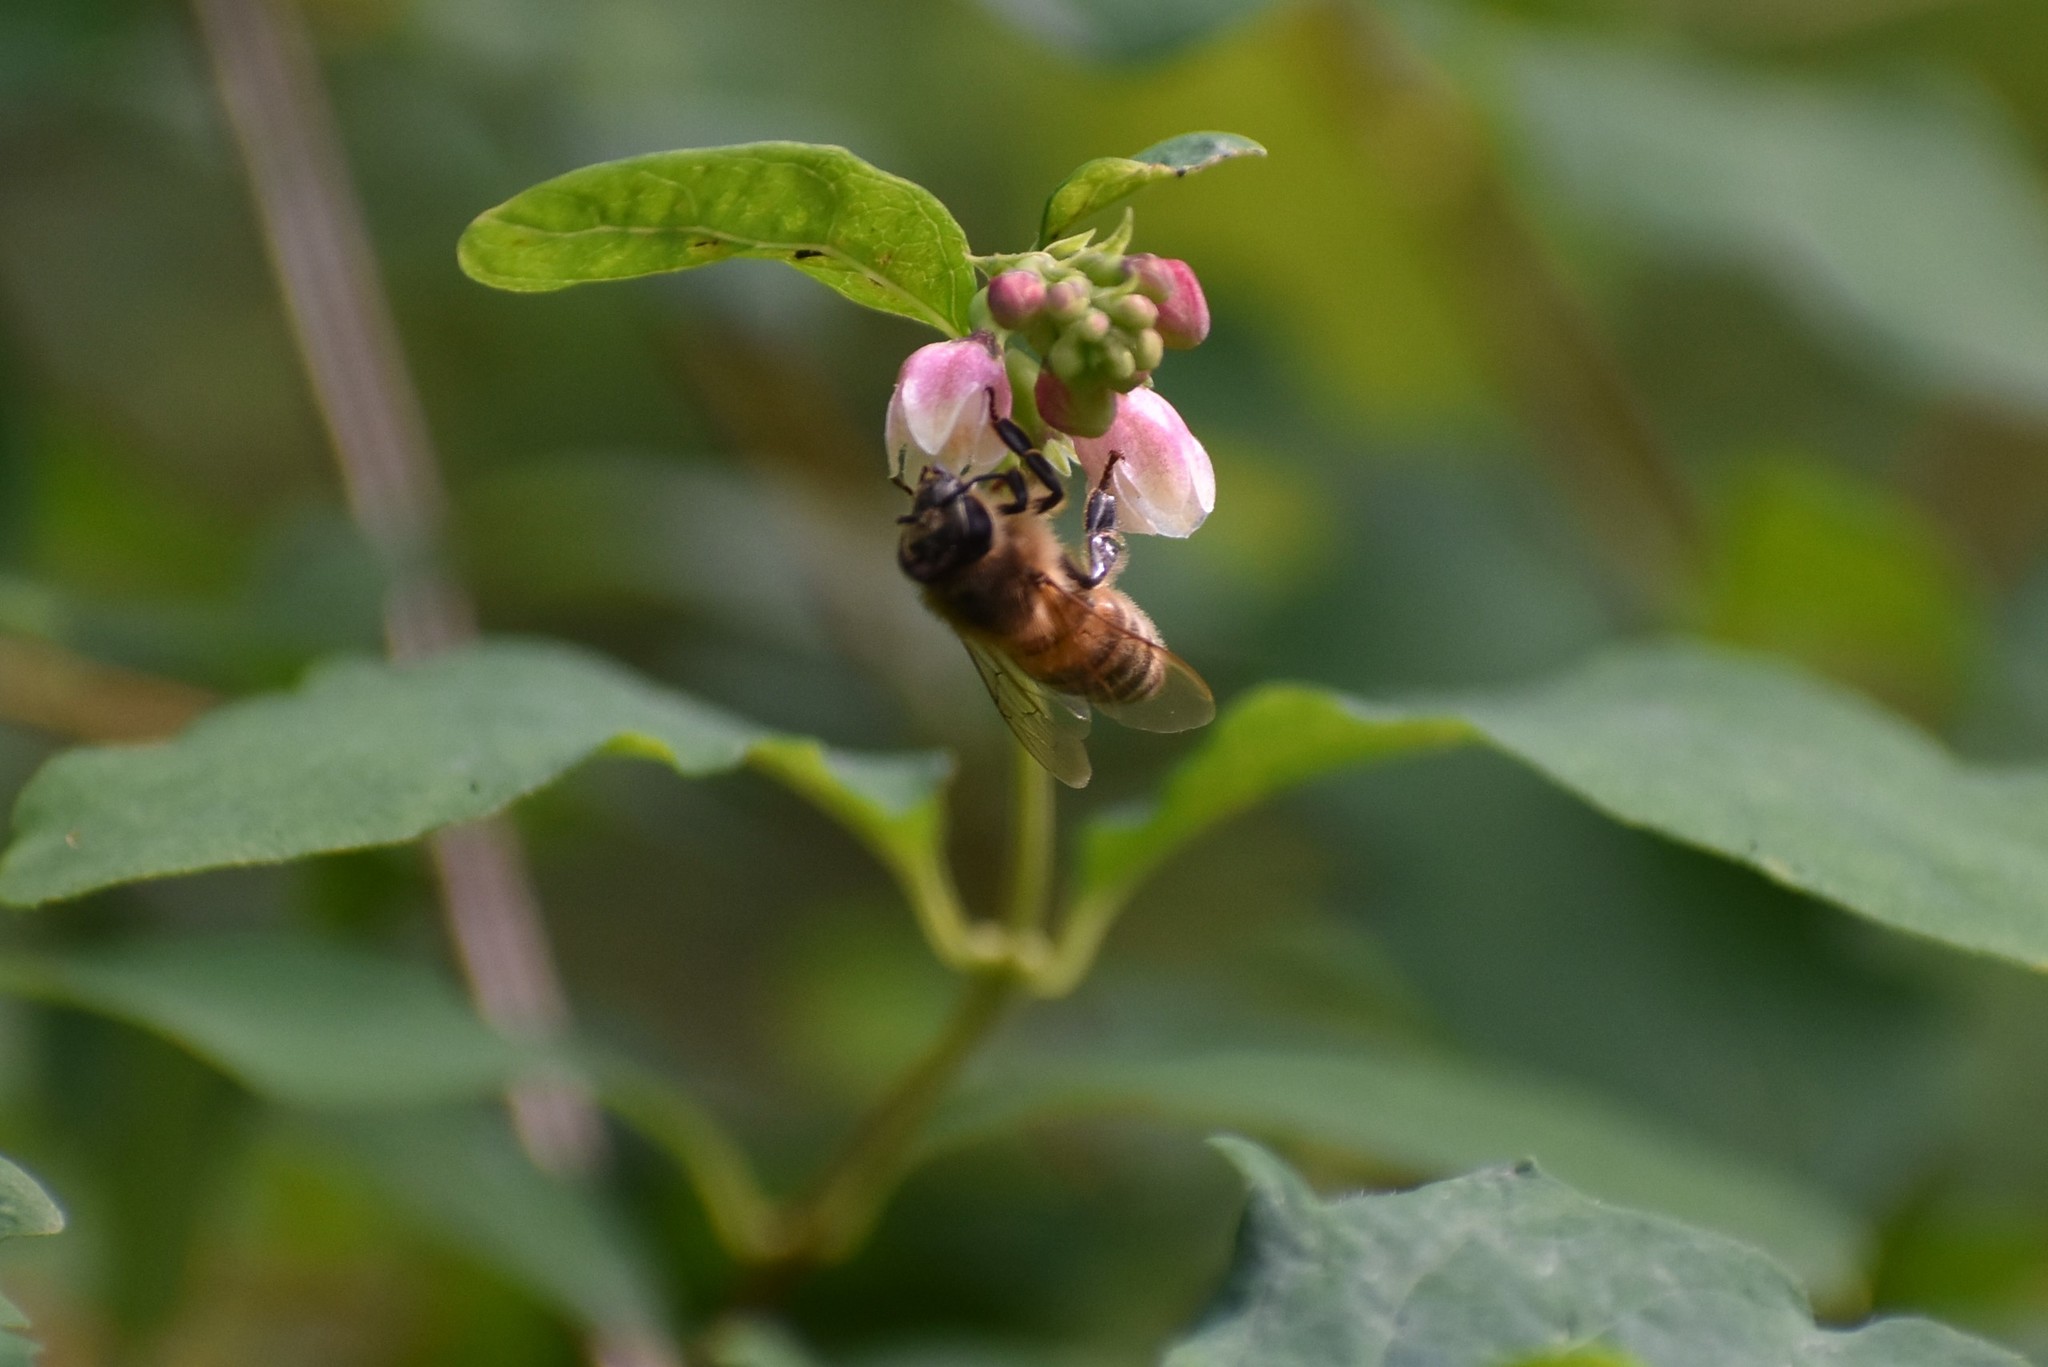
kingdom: Animalia
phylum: Arthropoda
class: Insecta
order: Hymenoptera
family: Apidae
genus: Apis
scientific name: Apis mellifera
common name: Honey bee
